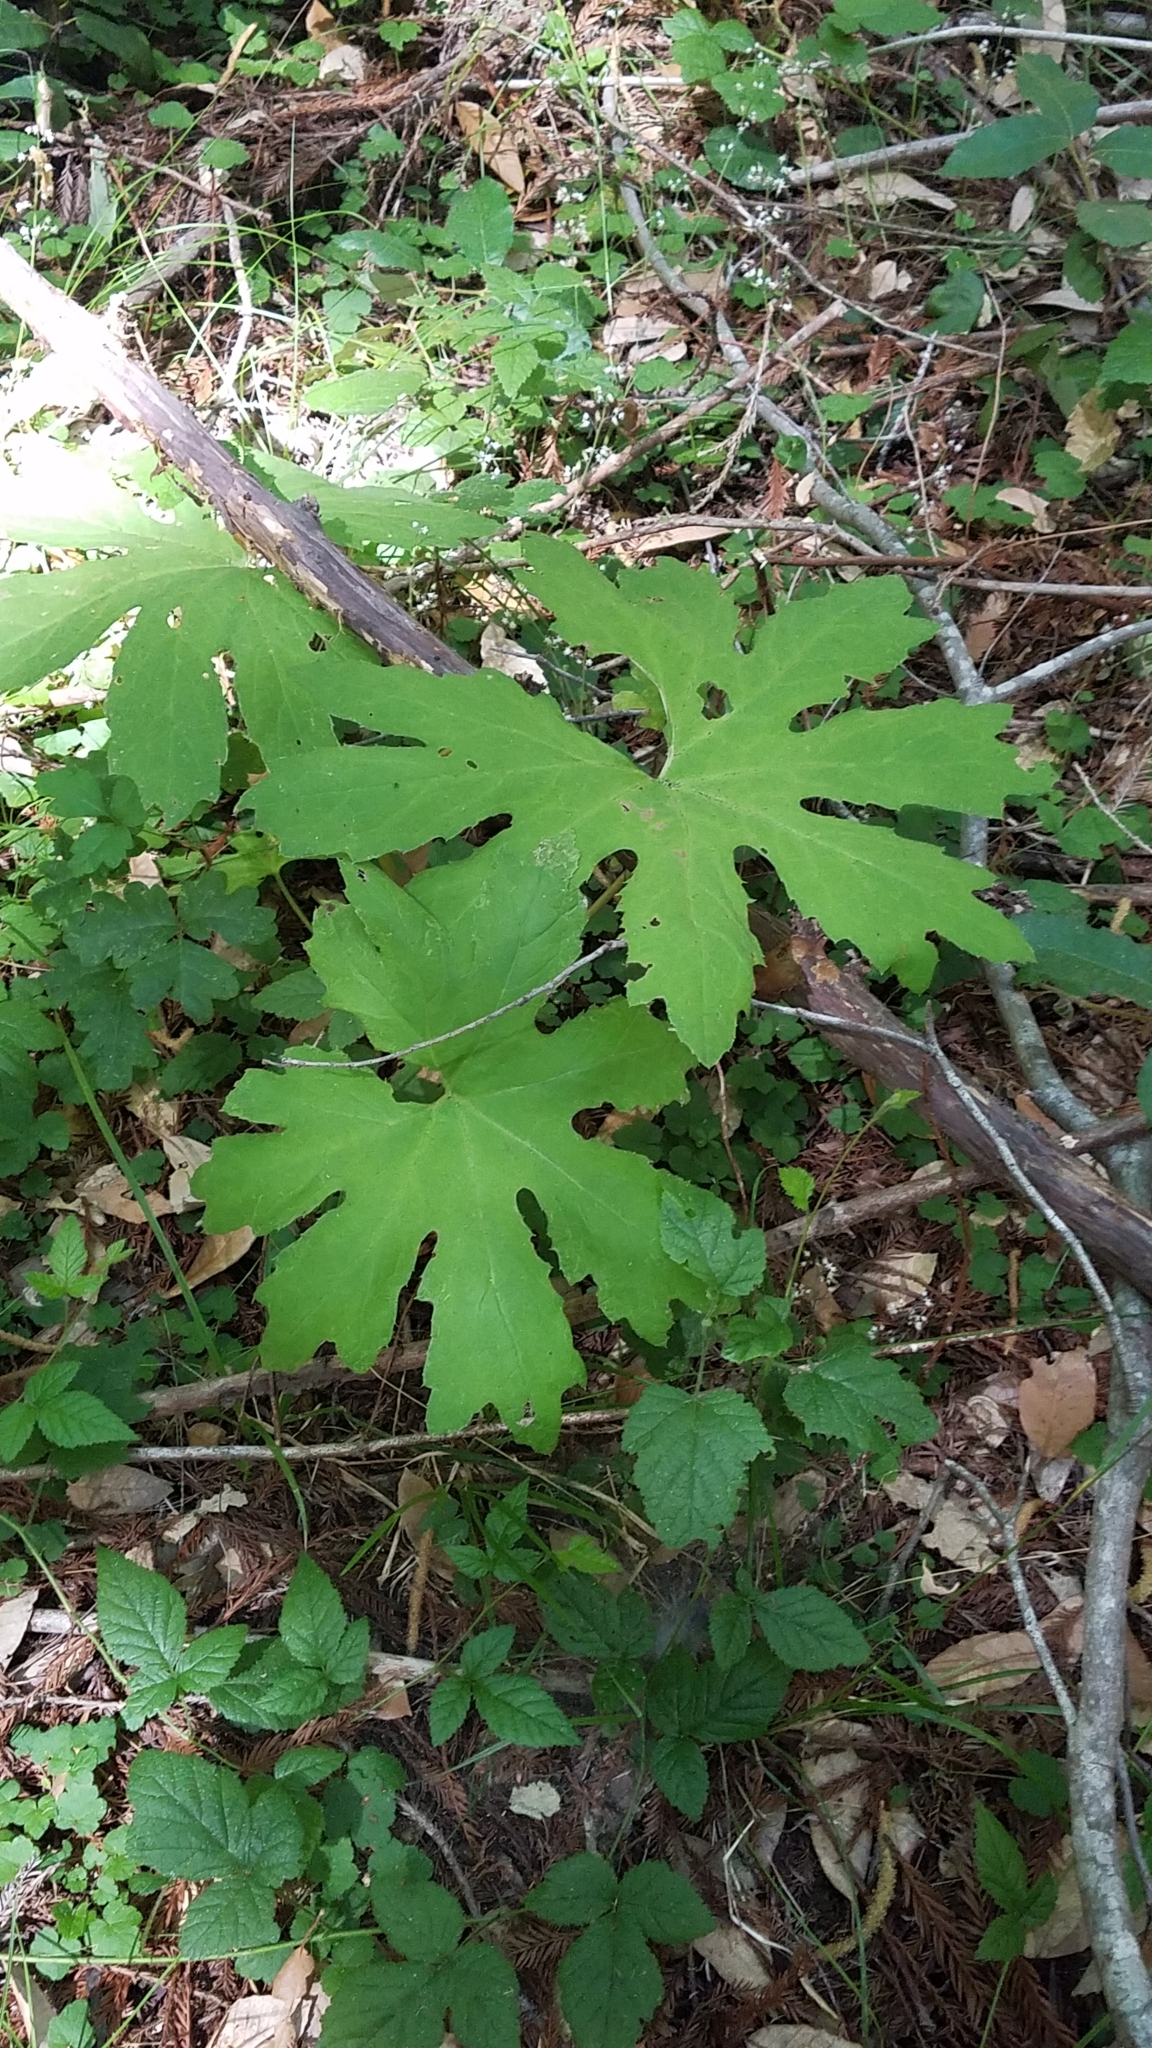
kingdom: Plantae
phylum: Tracheophyta
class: Magnoliopsida
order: Asterales
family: Asteraceae
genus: Petasites
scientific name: Petasites frigidus
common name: Arctic butterbur
